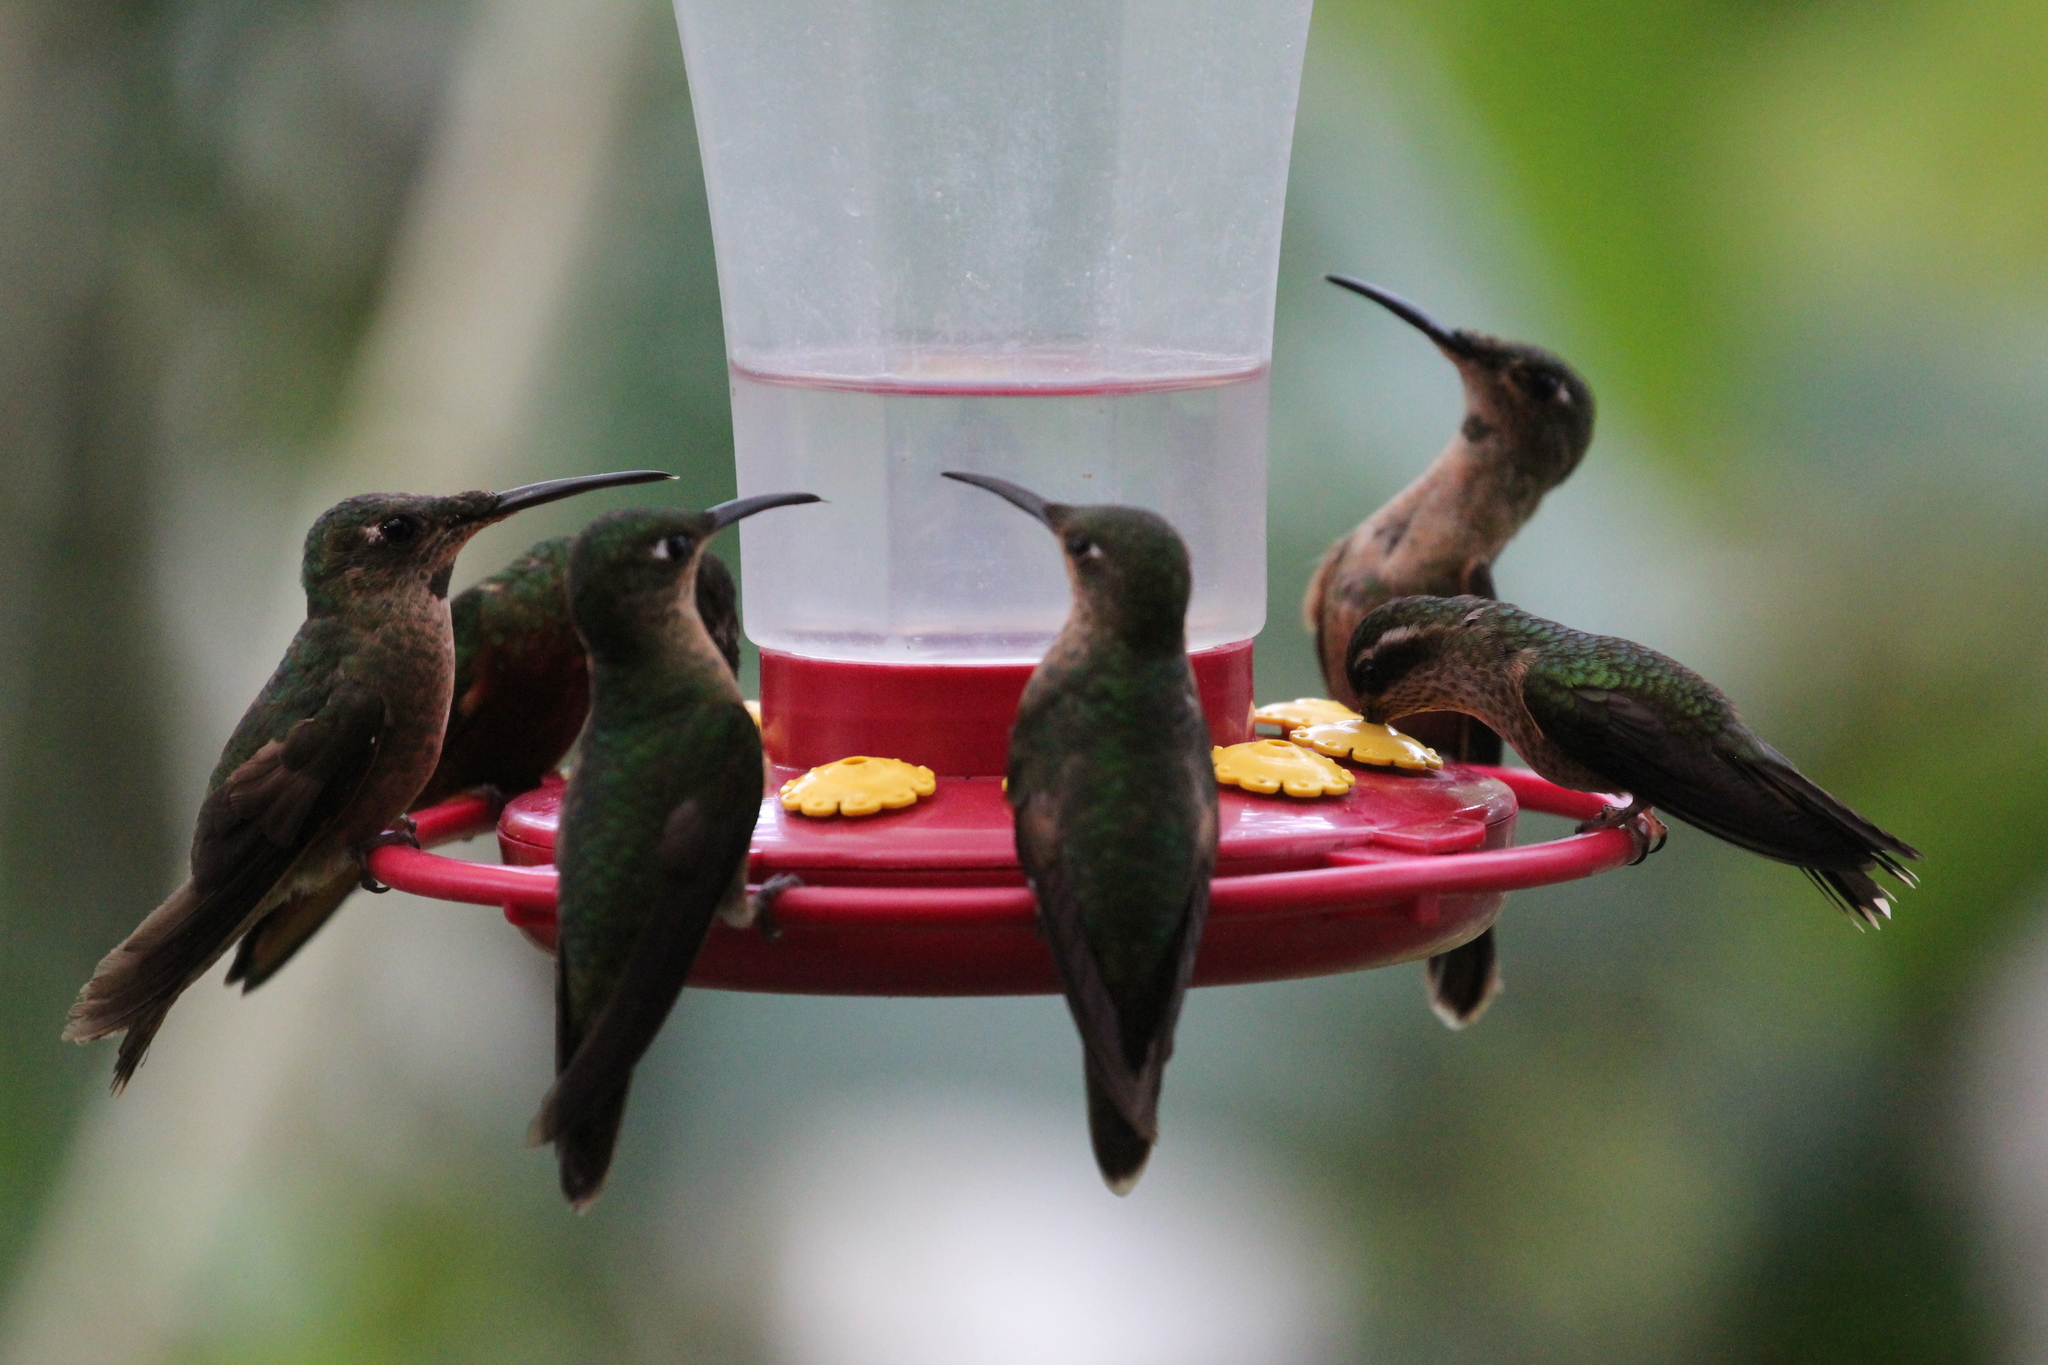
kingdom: Animalia
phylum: Chordata
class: Aves
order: Apodiformes
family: Trochilidae
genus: Adelomyia
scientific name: Adelomyia melanogenys
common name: Speckled hummingbird
